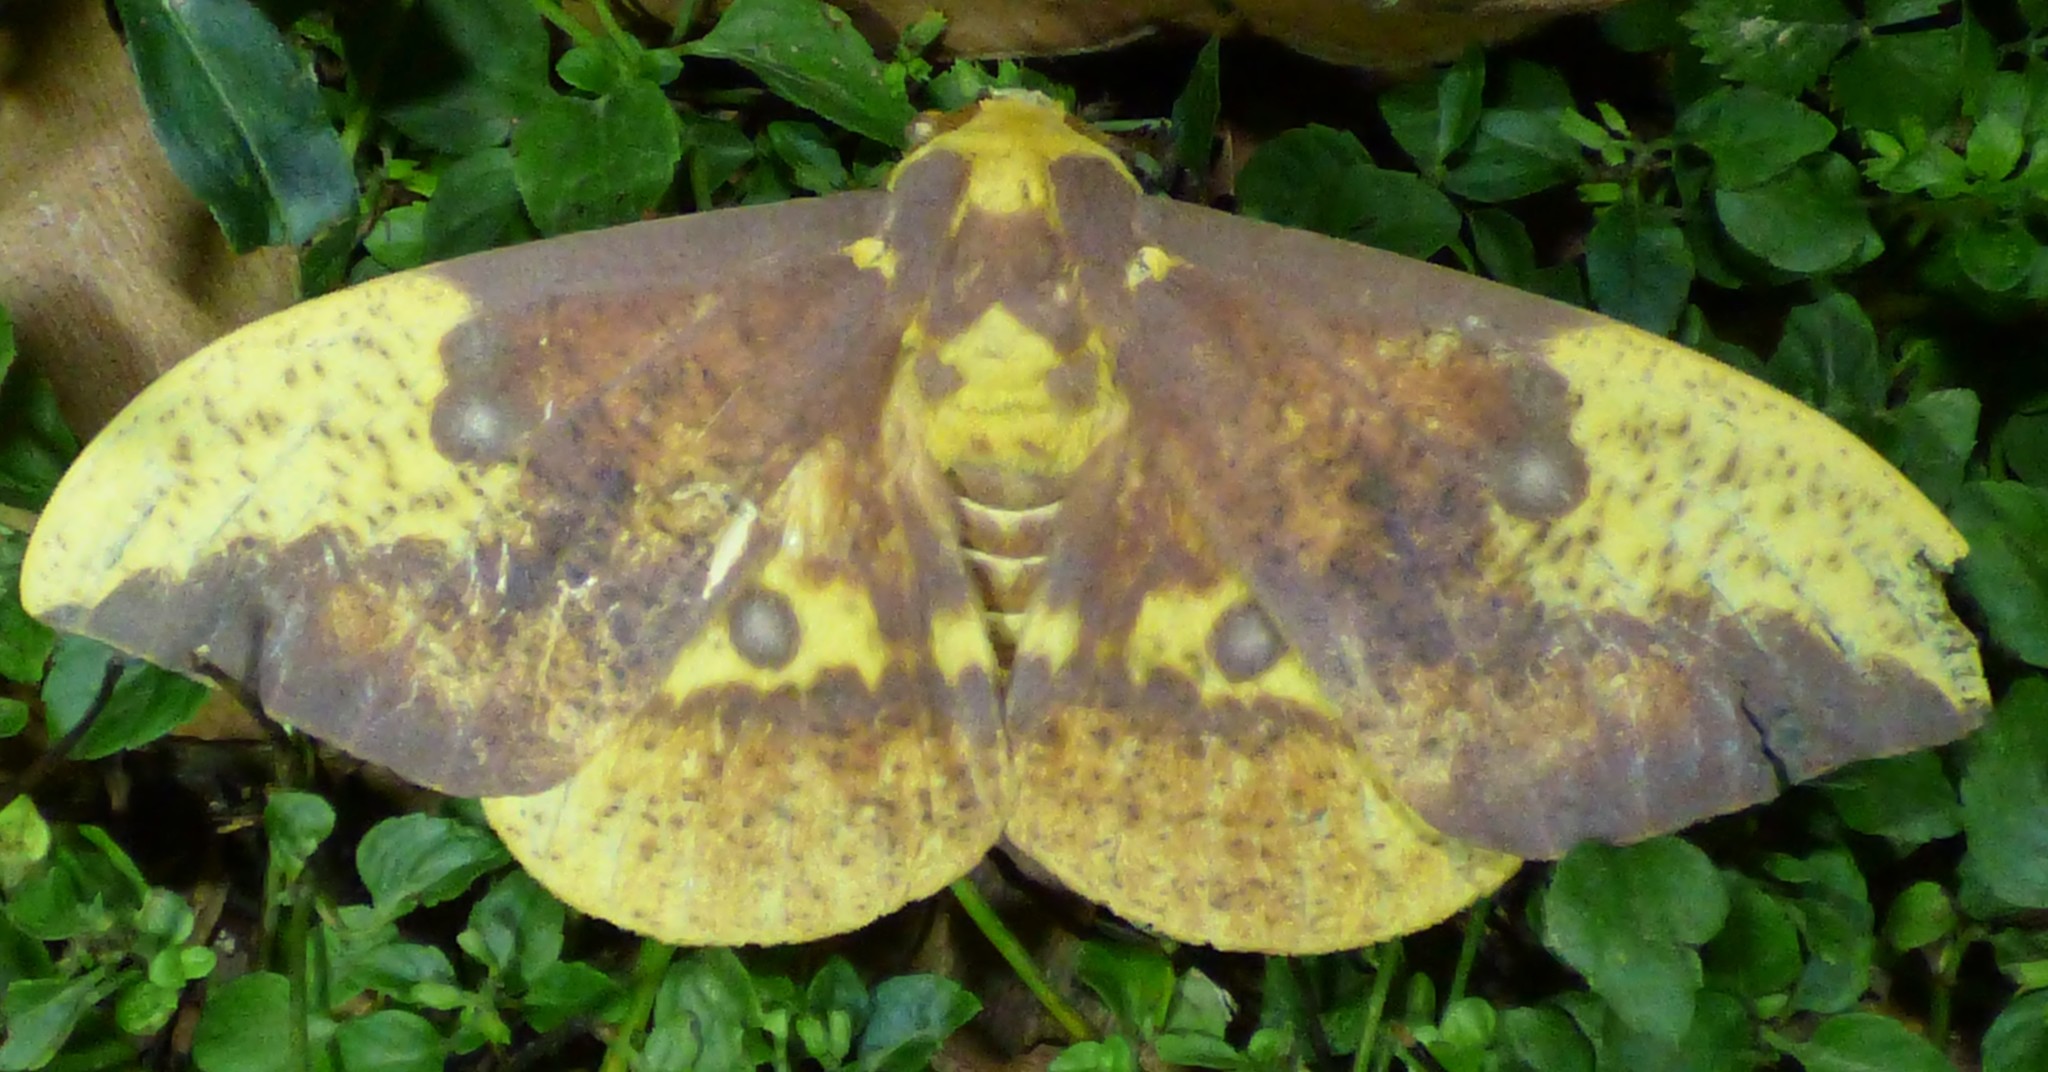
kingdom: Animalia
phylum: Arthropoda
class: Insecta
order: Lepidoptera
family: Saturniidae
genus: Eacles
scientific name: Eacles imperialis
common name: Imperial moth
